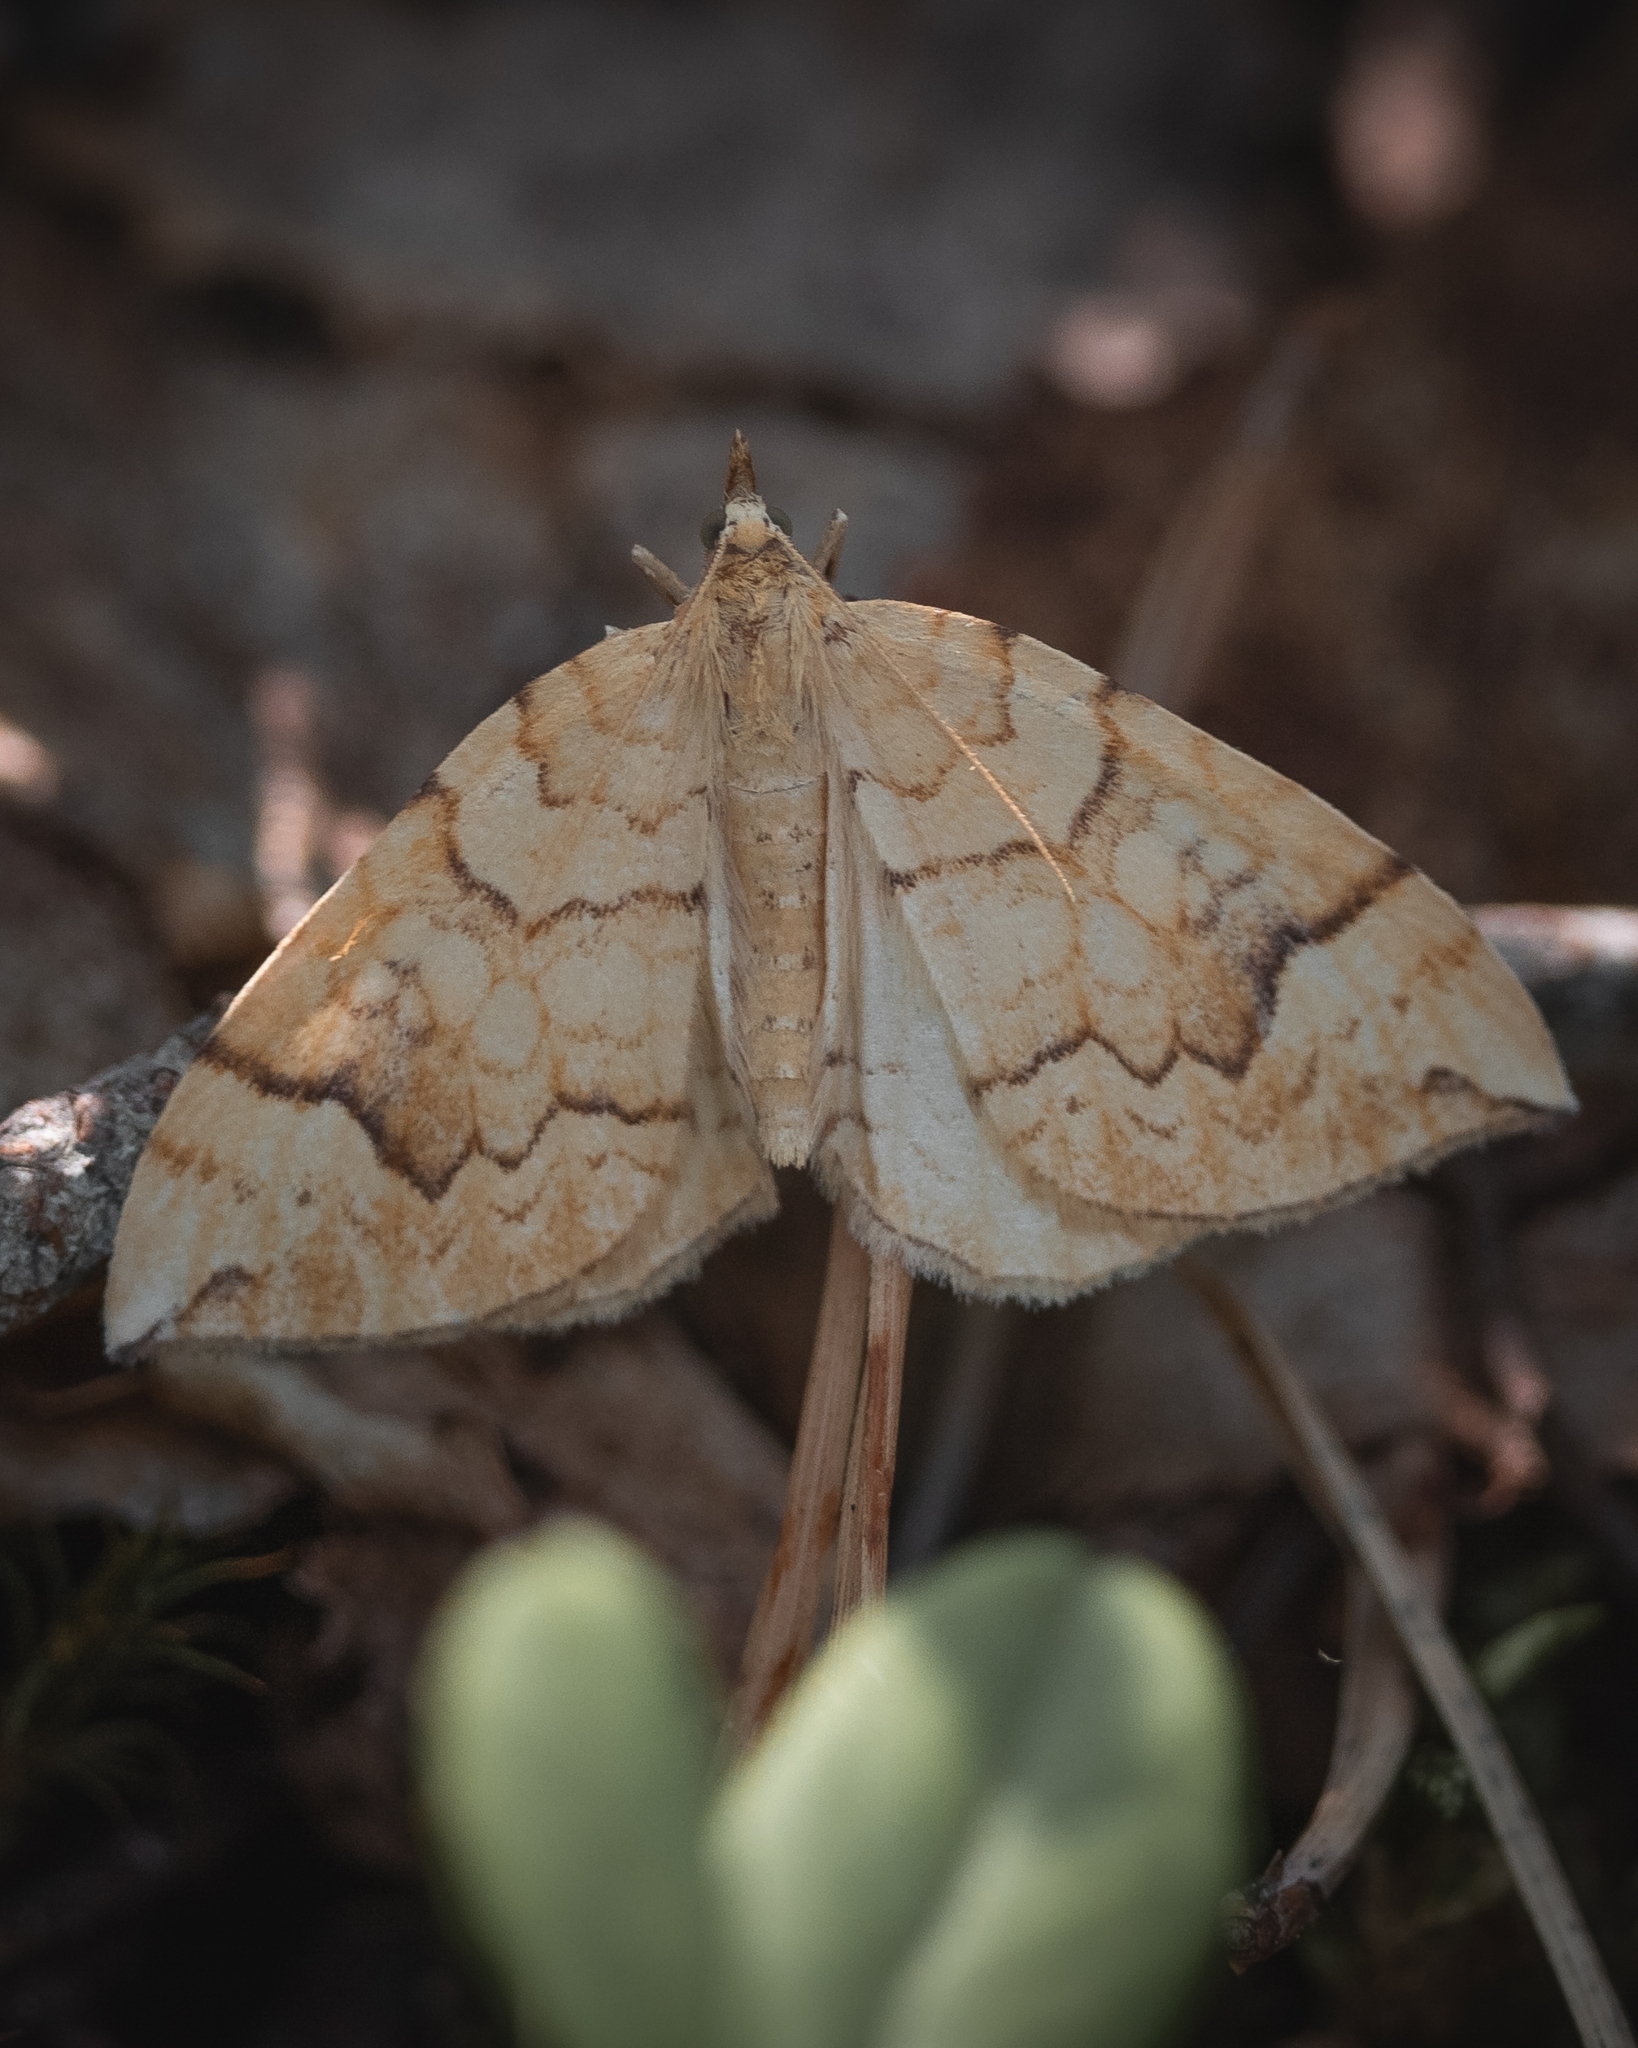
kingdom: Animalia
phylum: Arthropoda
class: Insecta
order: Lepidoptera
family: Geometridae
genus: Eulithis
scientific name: Eulithis populata
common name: Northern spinach
